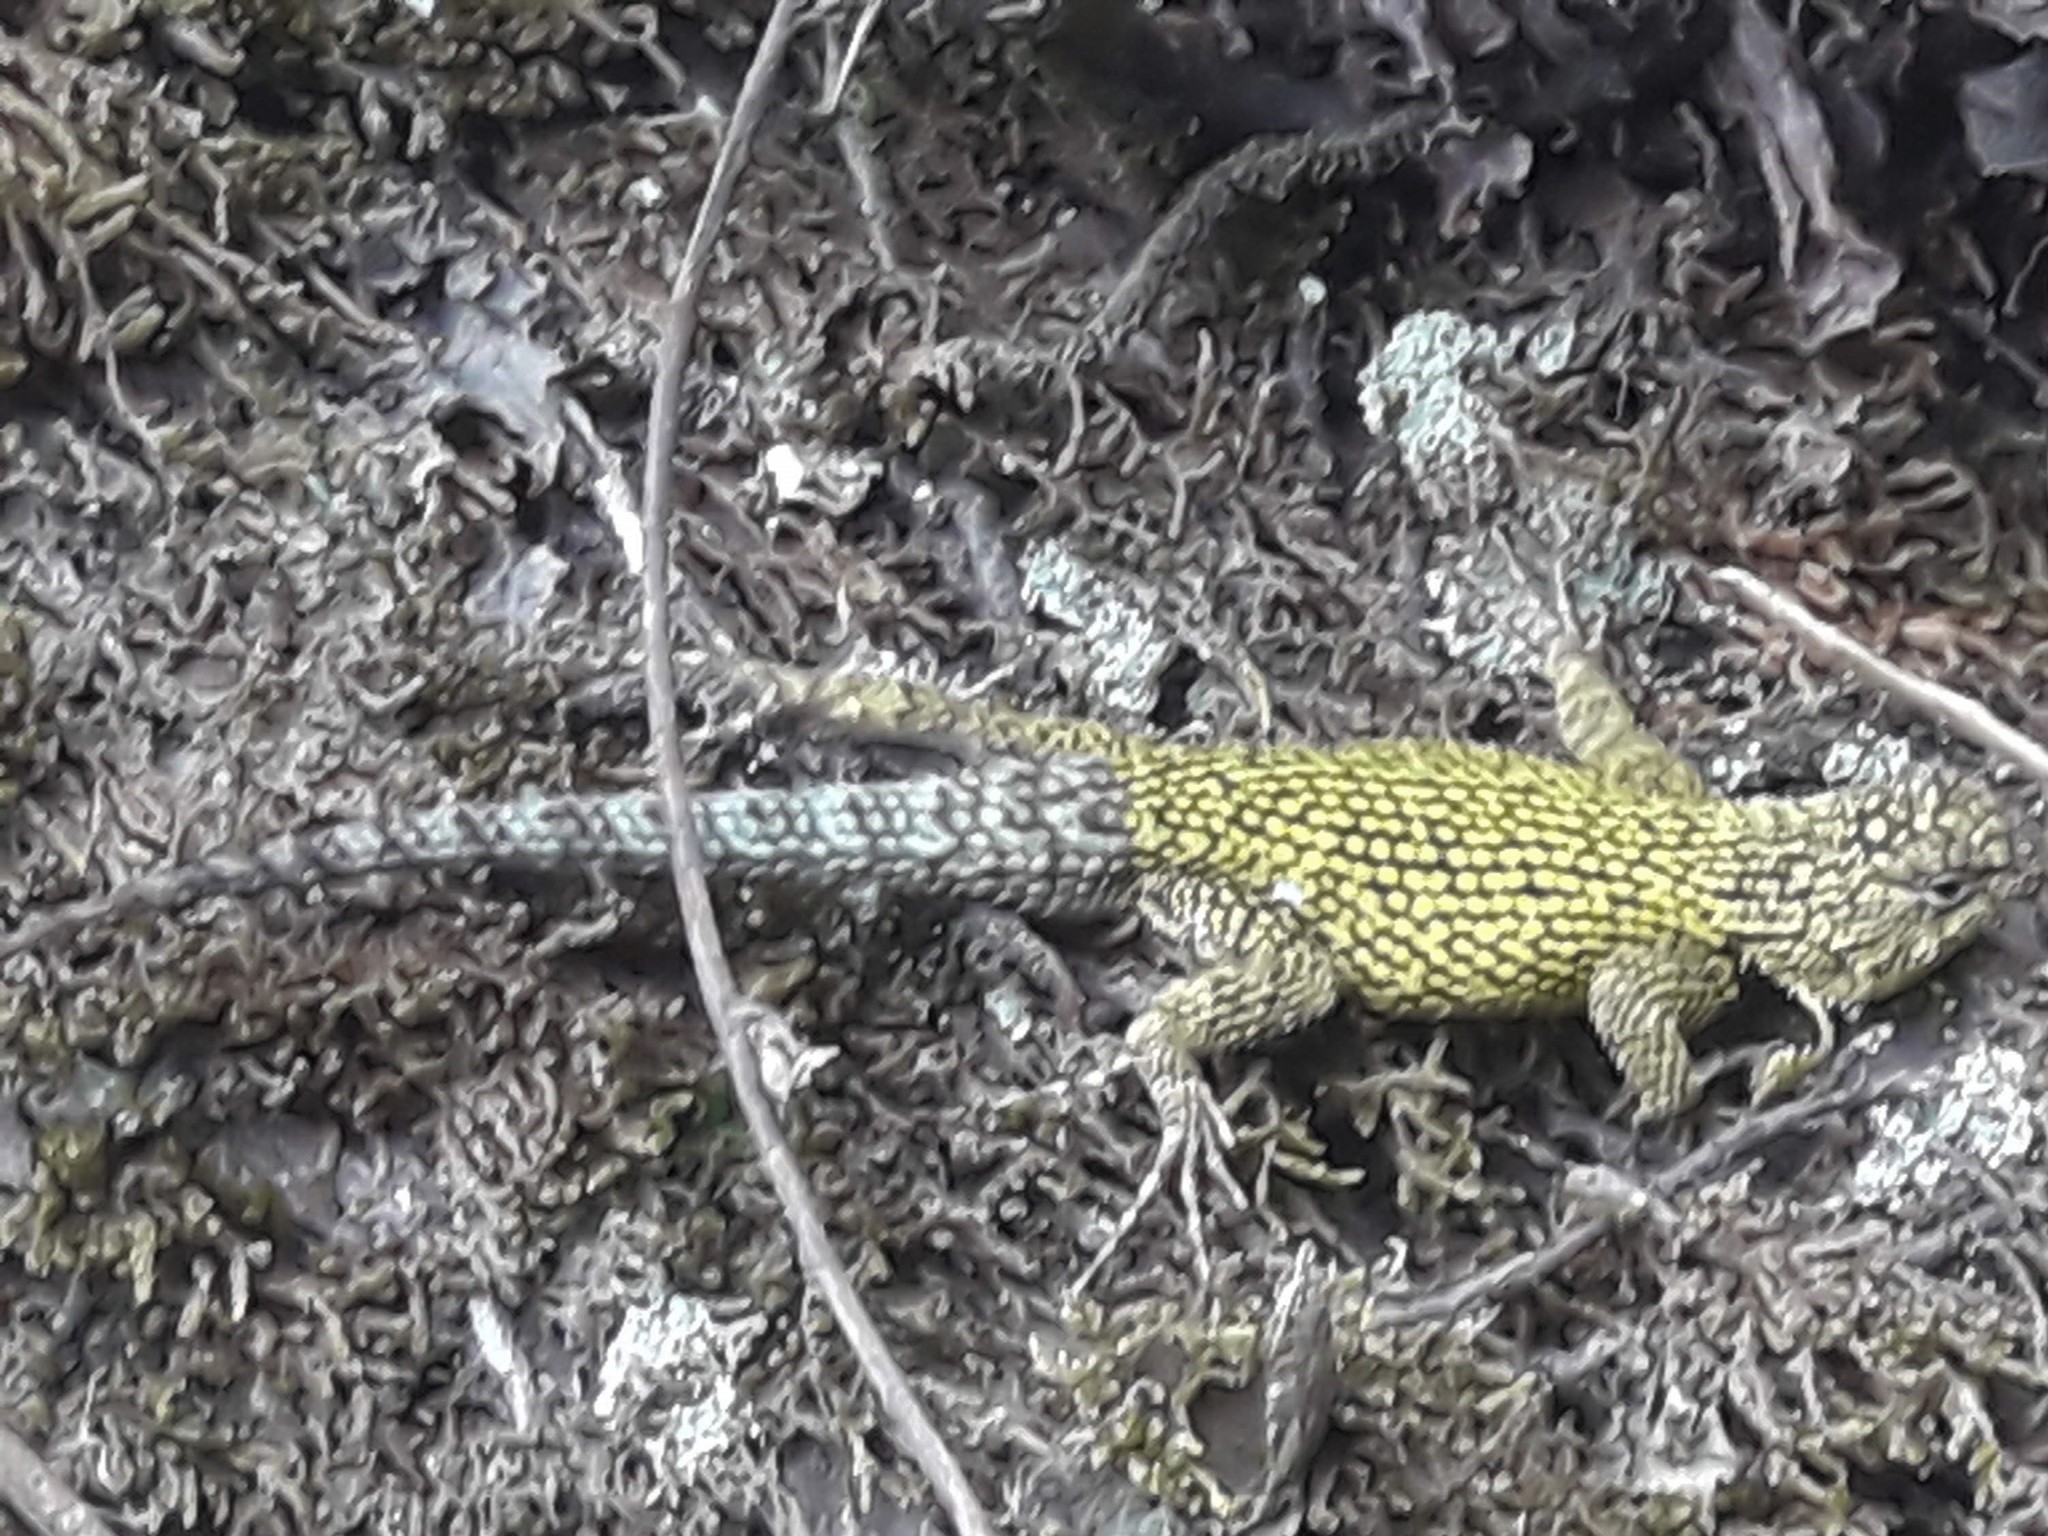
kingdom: Animalia
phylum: Chordata
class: Squamata
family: Phrynosomatidae
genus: Sceloporus
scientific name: Sceloporus malachiticus
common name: Green spiny lizard
